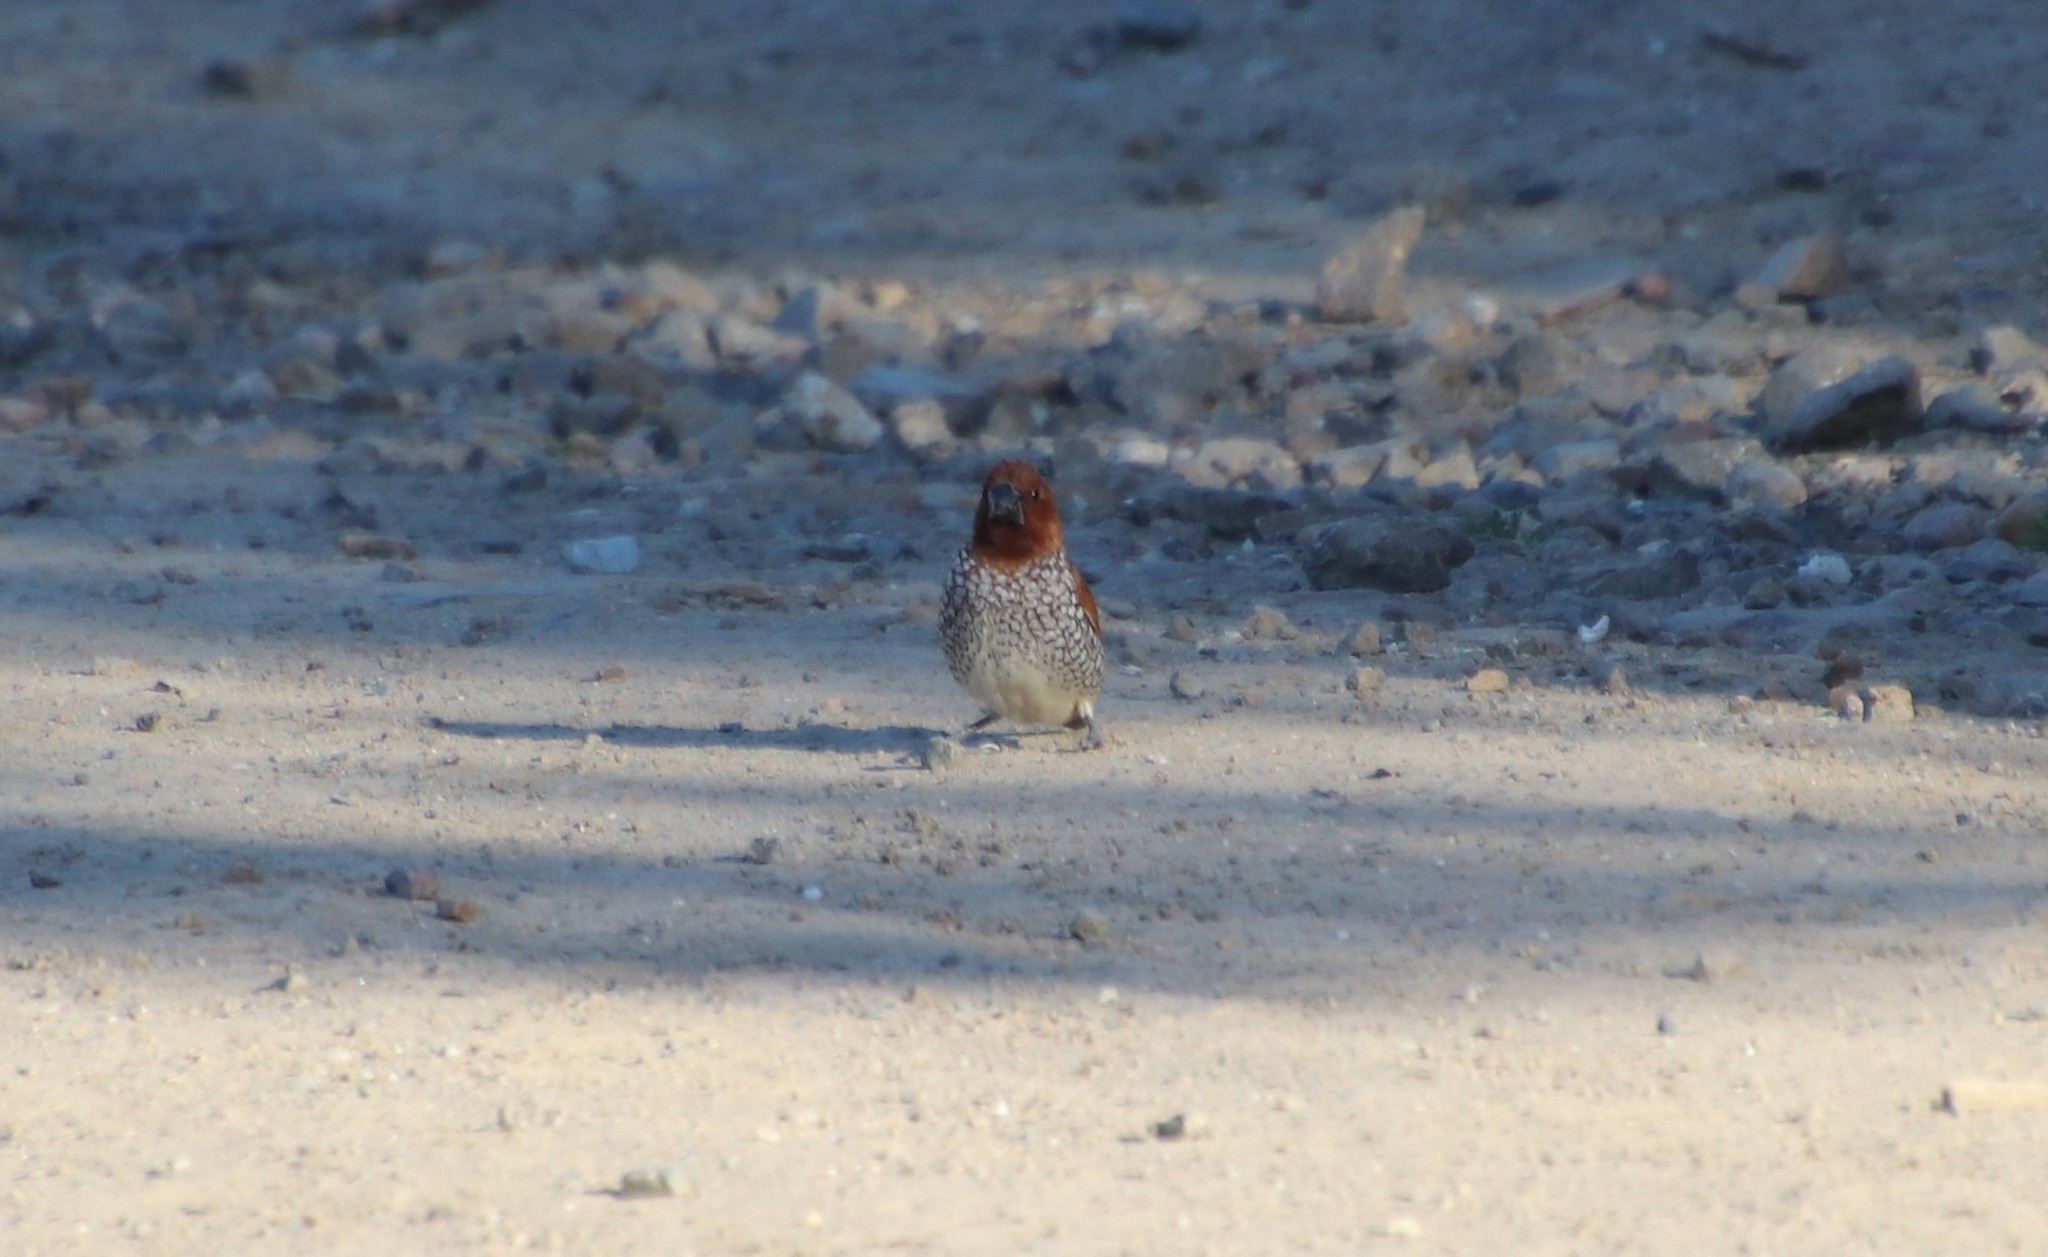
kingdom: Animalia
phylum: Chordata
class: Aves
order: Passeriformes
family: Estrildidae
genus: Lonchura
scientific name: Lonchura punctulata
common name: Scaly-breasted munia
